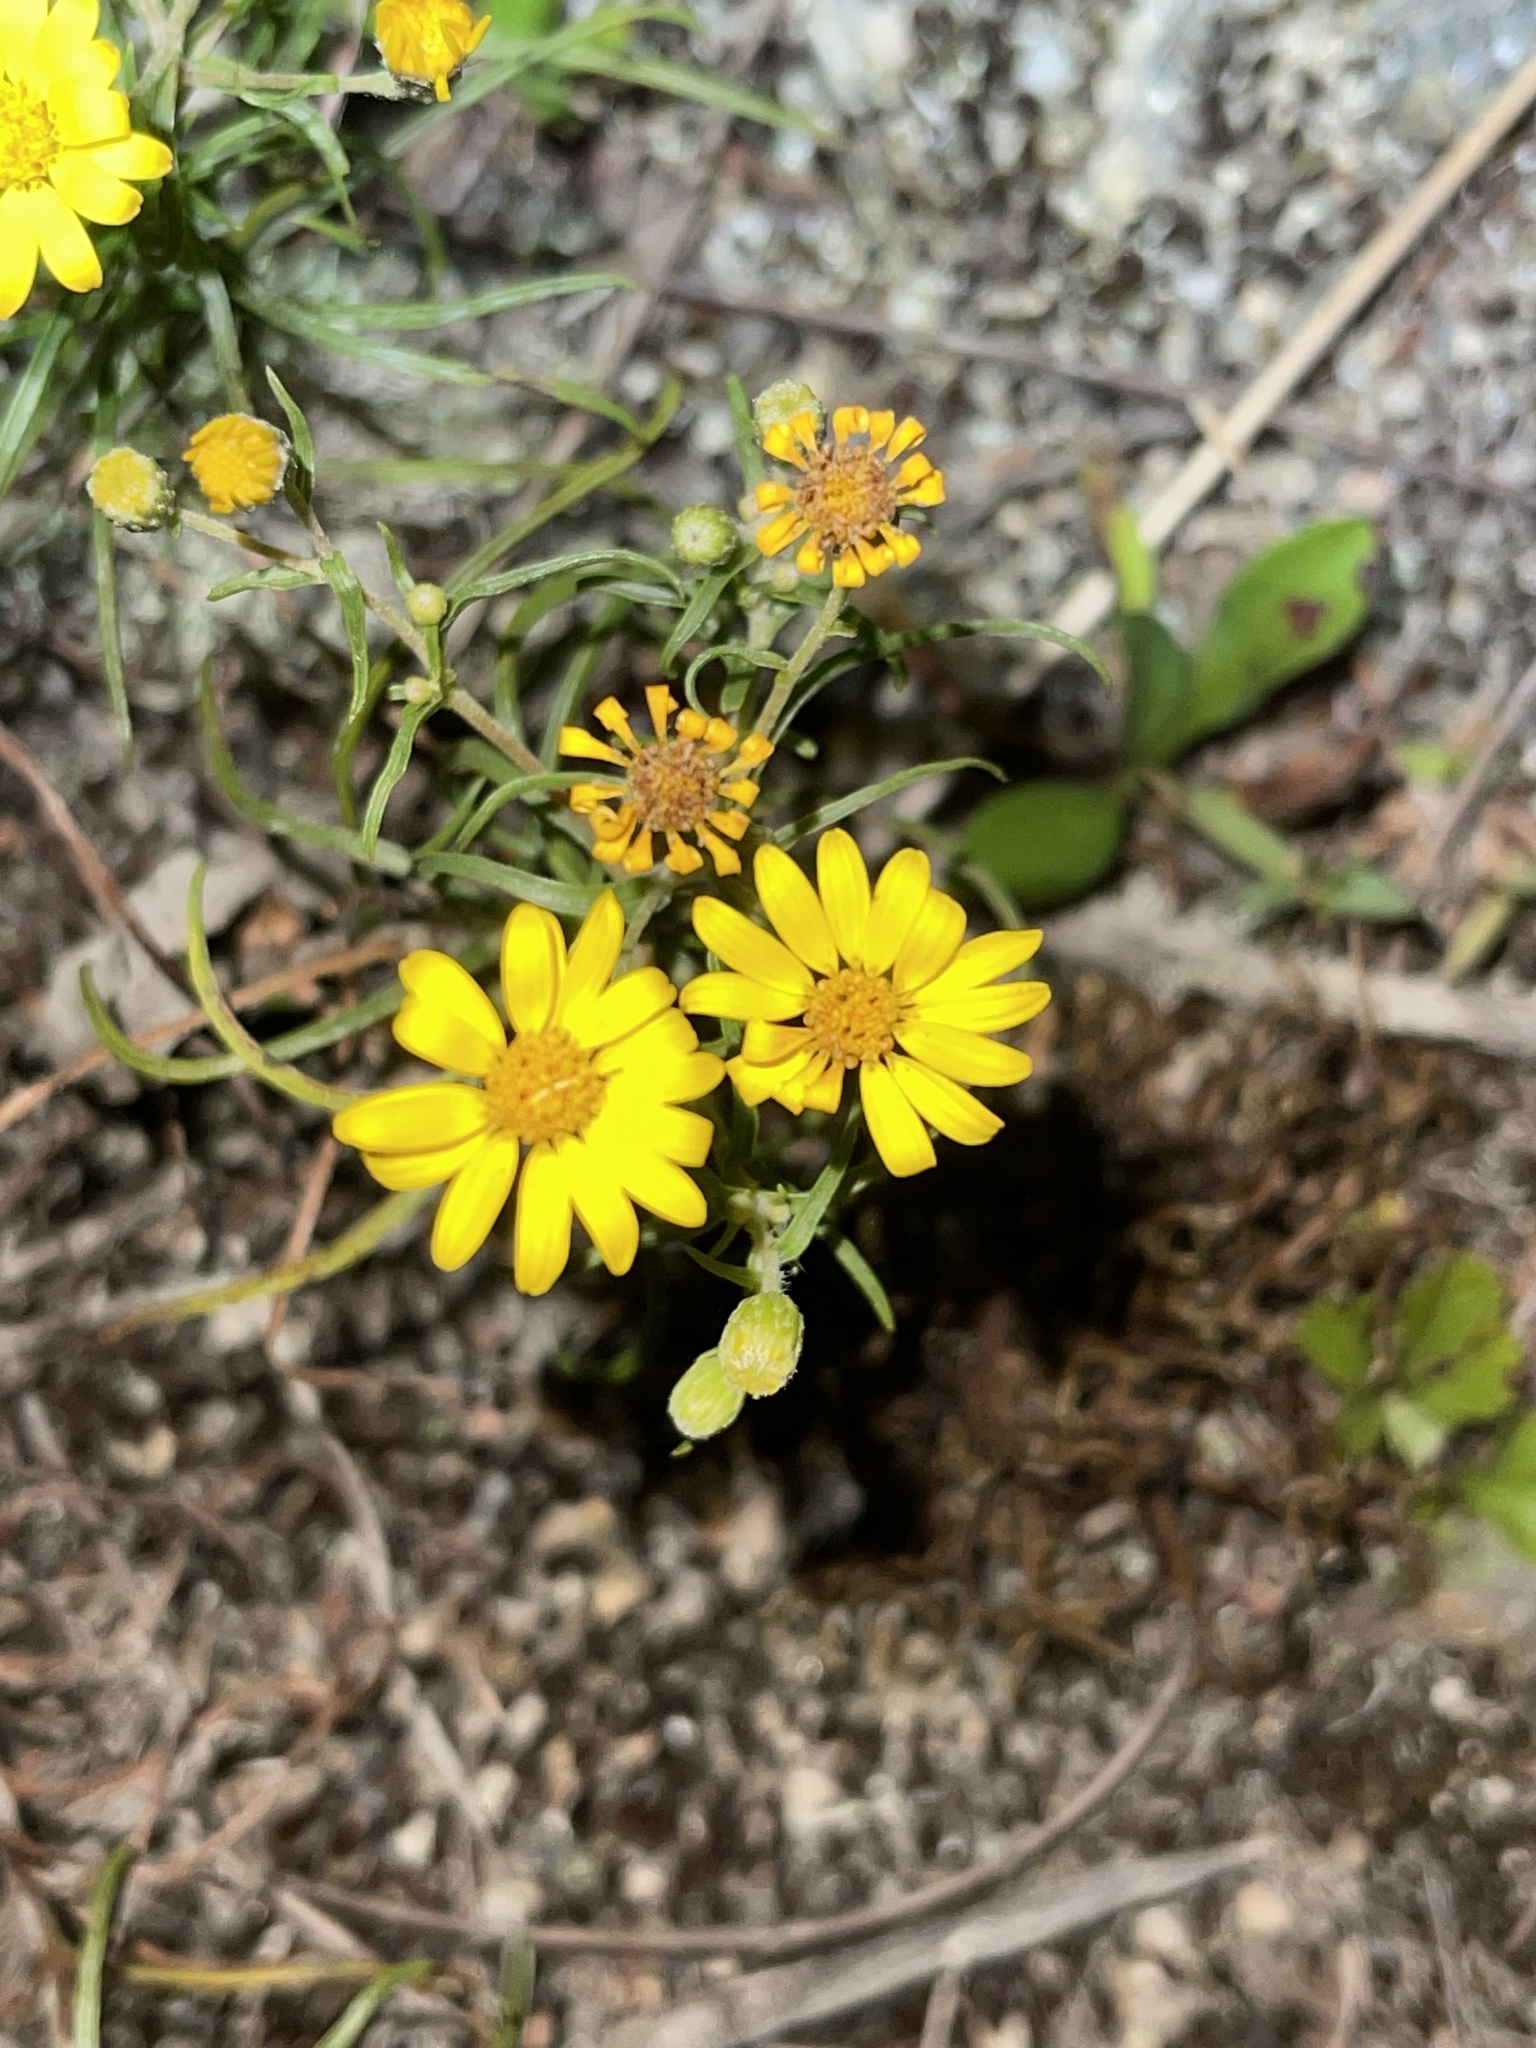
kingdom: Plantae
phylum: Tracheophyta
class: Magnoliopsida
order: Asterales
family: Asteraceae
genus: Pityopsis
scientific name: Pityopsis falcata
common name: Sickle-leaved goldenaster
